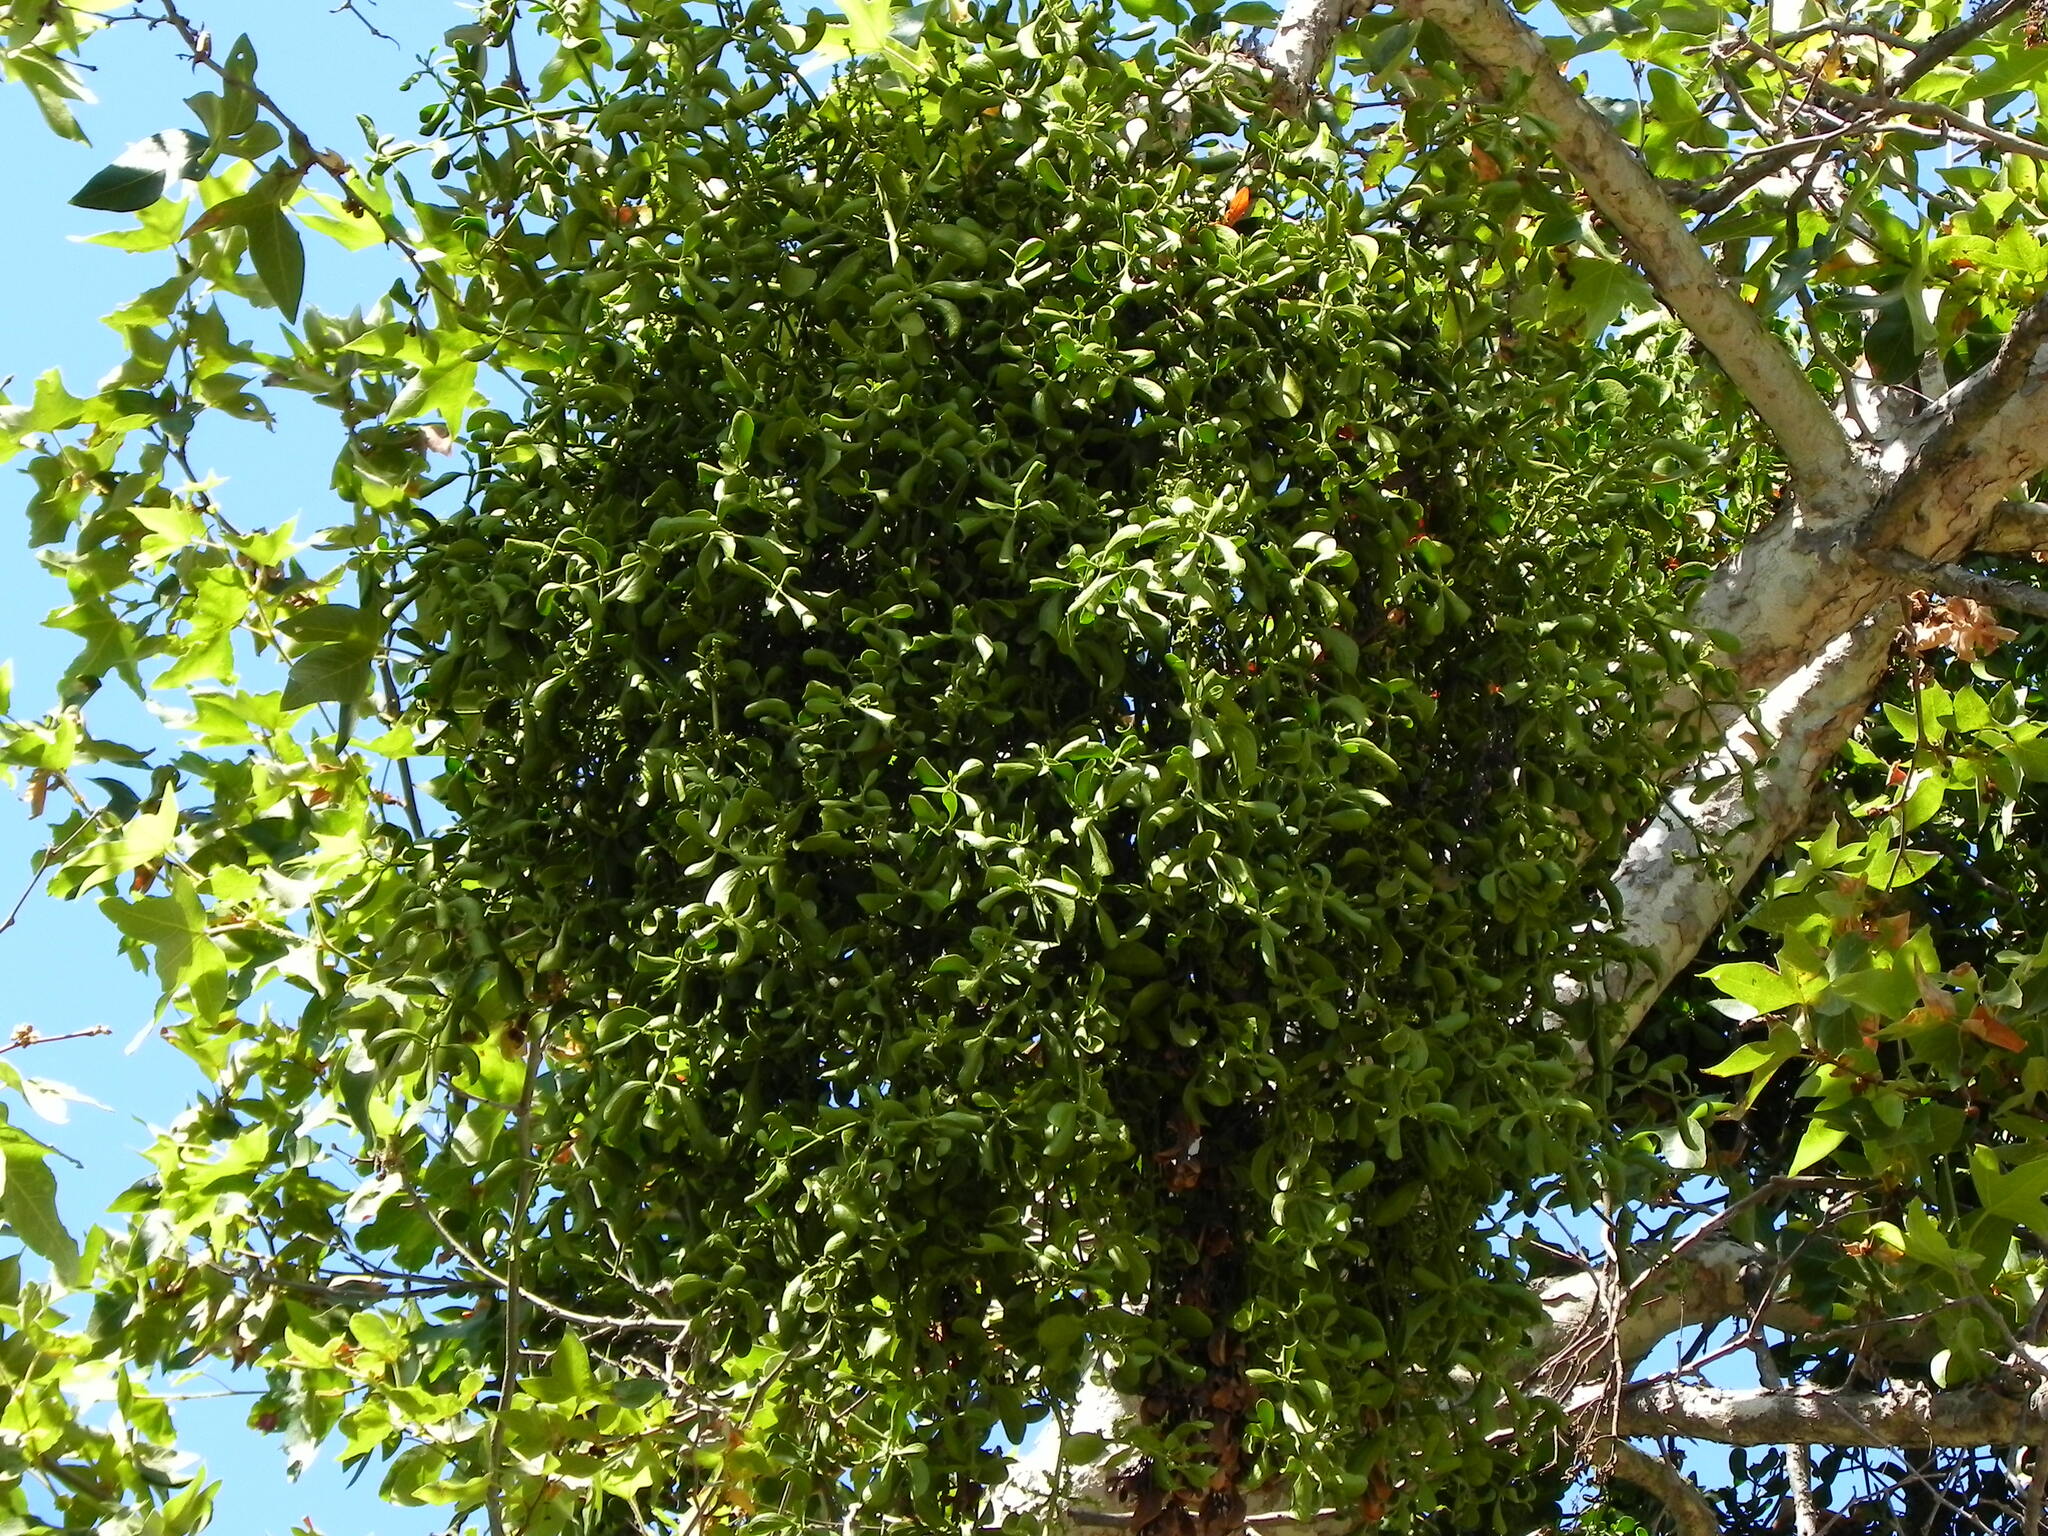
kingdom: Plantae
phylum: Tracheophyta
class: Magnoliopsida
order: Santalales
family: Viscaceae
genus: Phoradendron
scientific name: Phoradendron
